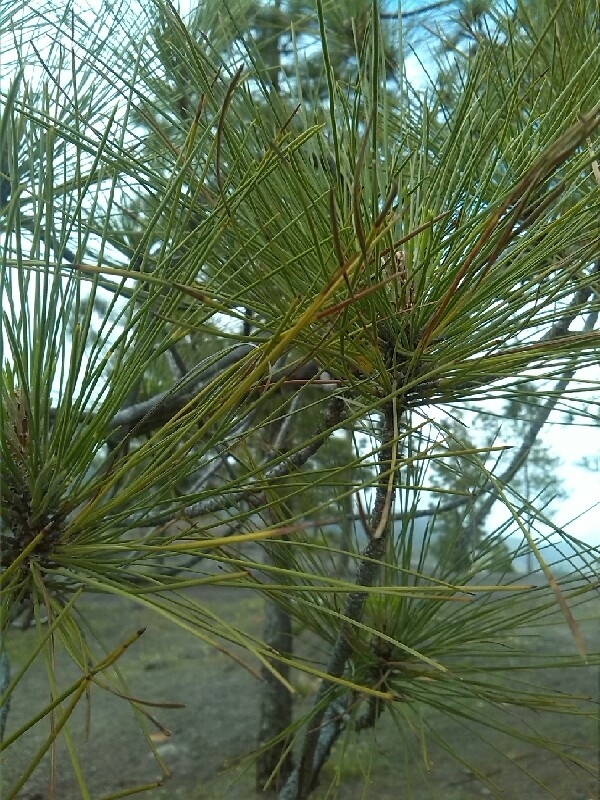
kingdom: Plantae
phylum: Tracheophyta
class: Pinopsida
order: Pinales
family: Pinaceae
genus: Pinus
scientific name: Pinus canariensis
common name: Canary islands pine
